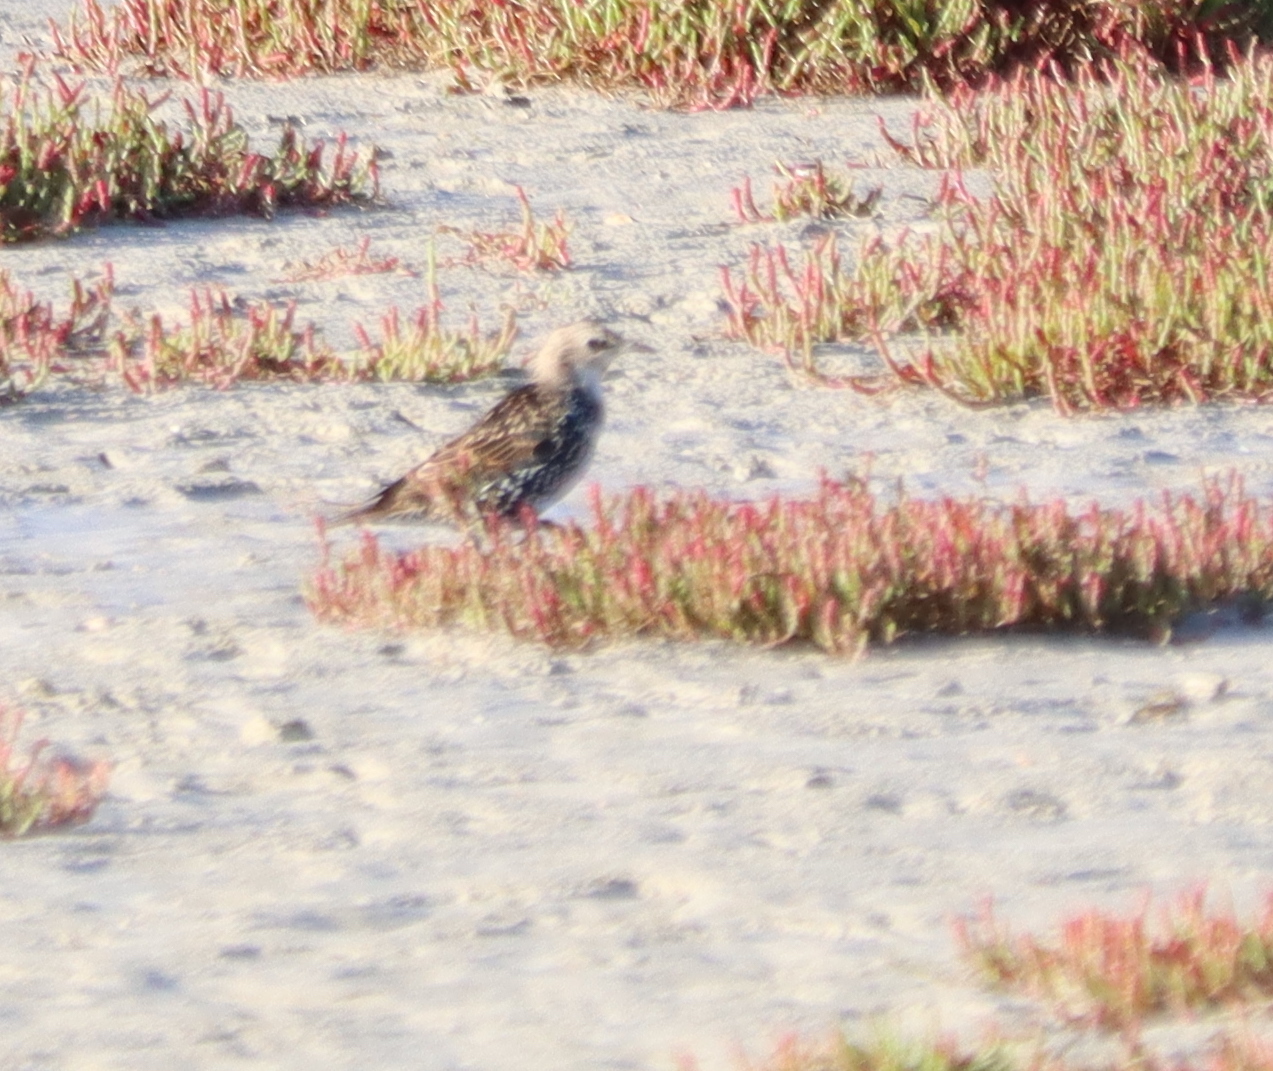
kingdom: Animalia
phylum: Chordata
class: Aves
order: Passeriformes
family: Sturnidae
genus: Sturnus
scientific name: Sturnus vulgaris
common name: Common starling
